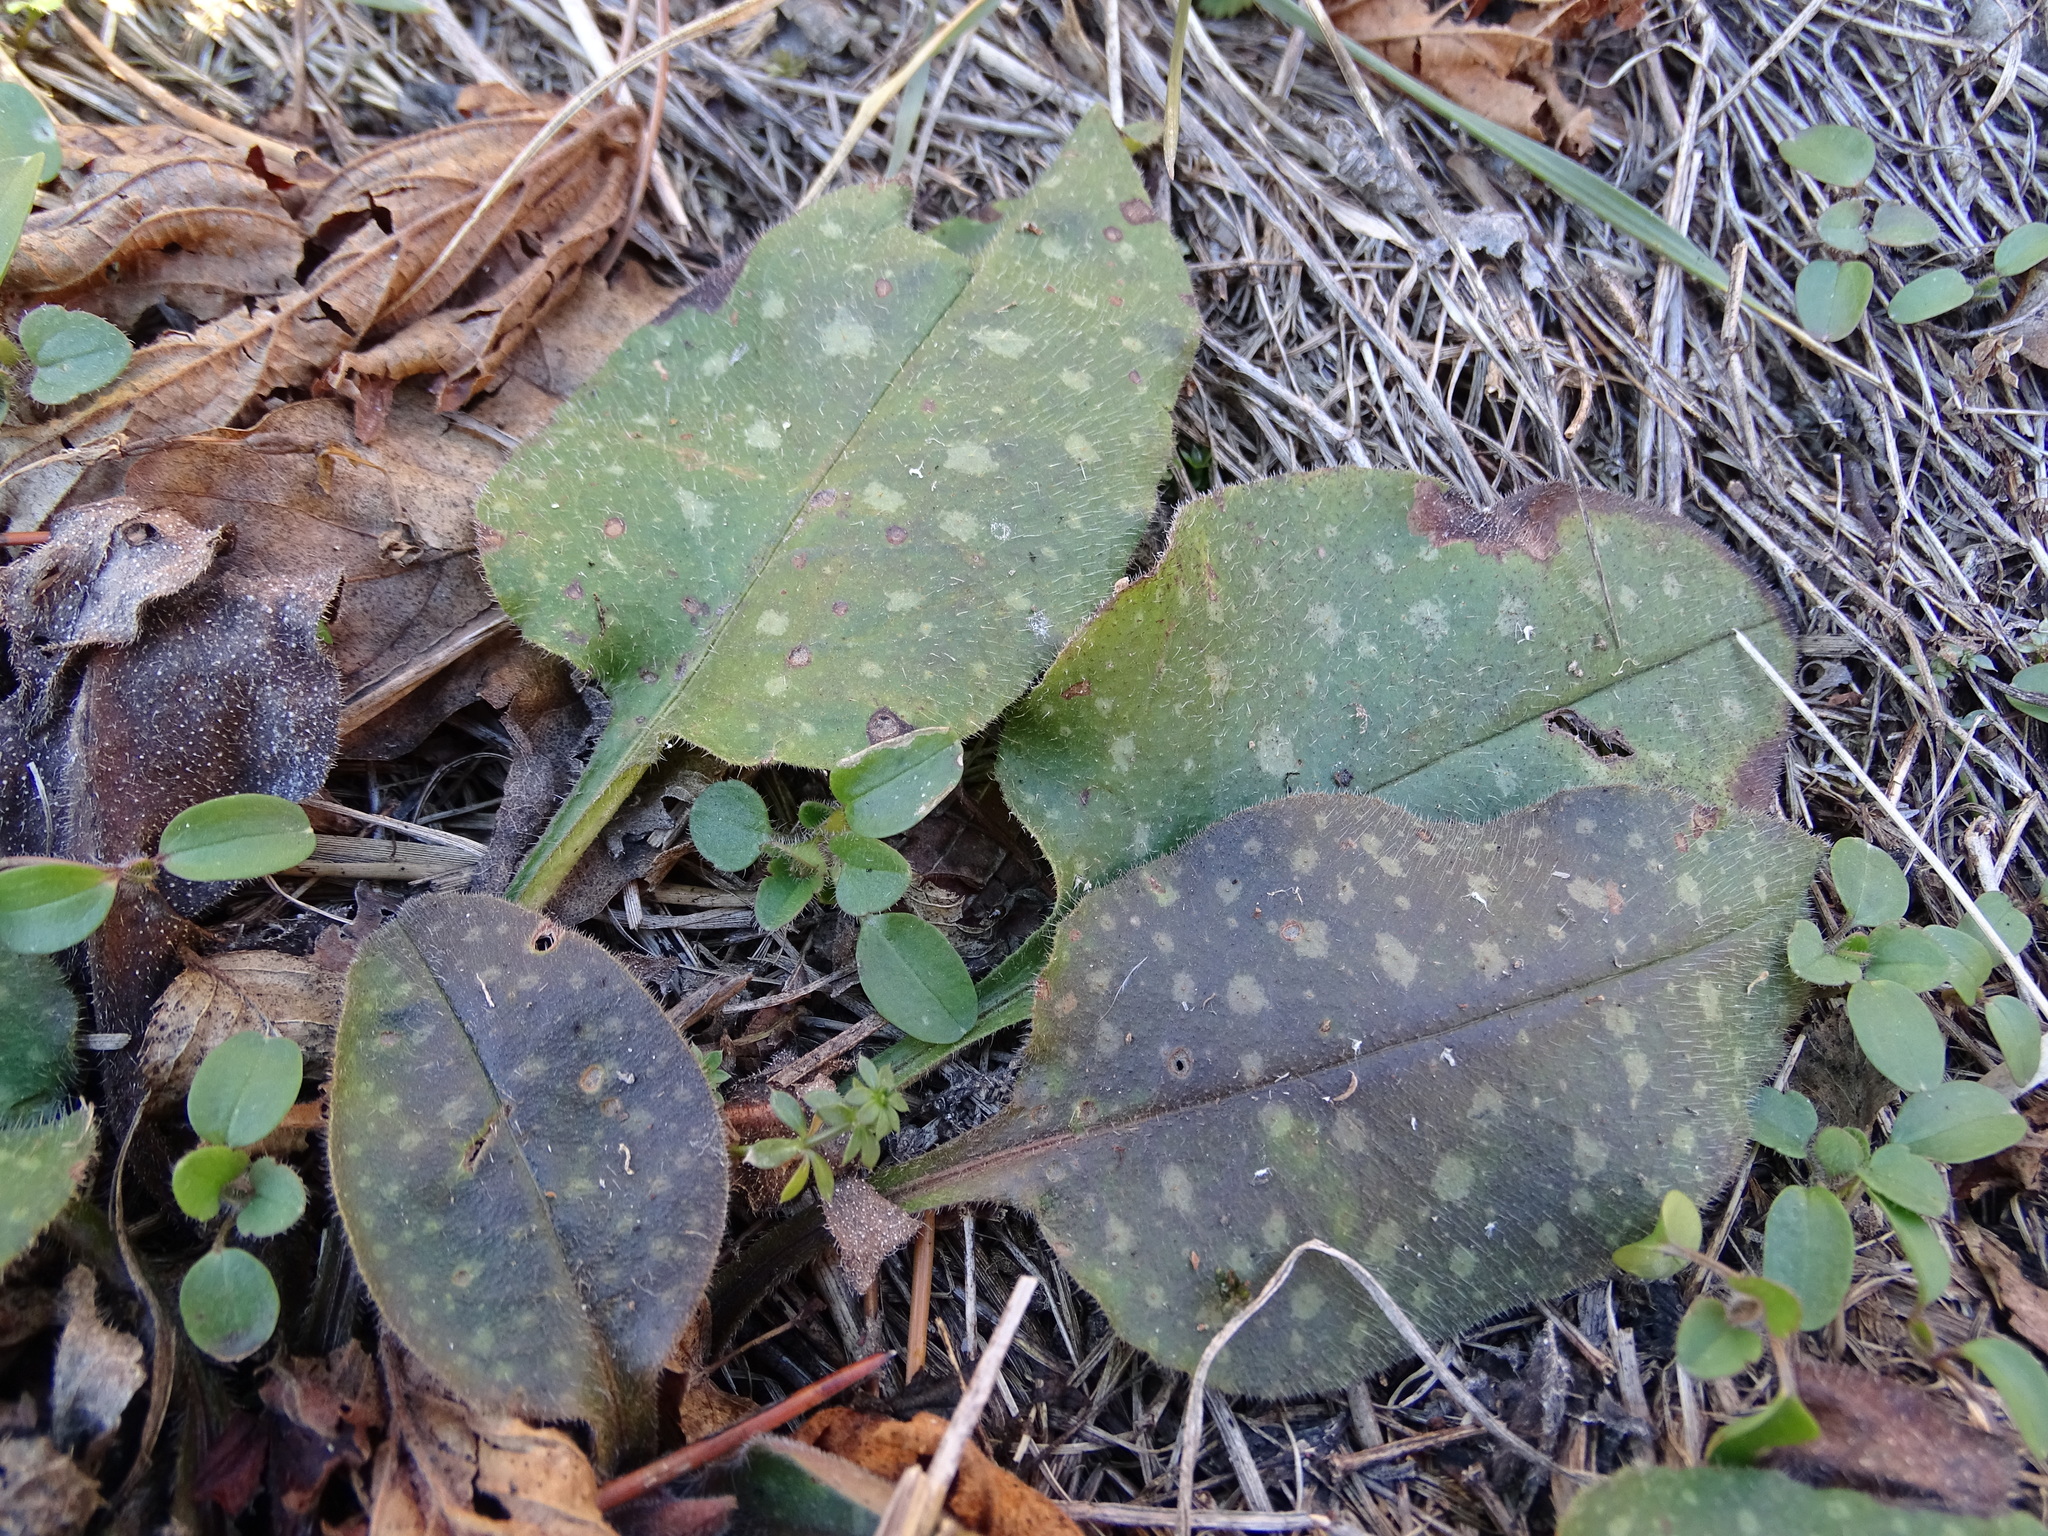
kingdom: Plantae
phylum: Tracheophyta
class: Magnoliopsida
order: Boraginales
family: Boraginaceae
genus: Pulmonaria
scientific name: Pulmonaria officinalis
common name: Lungwort
